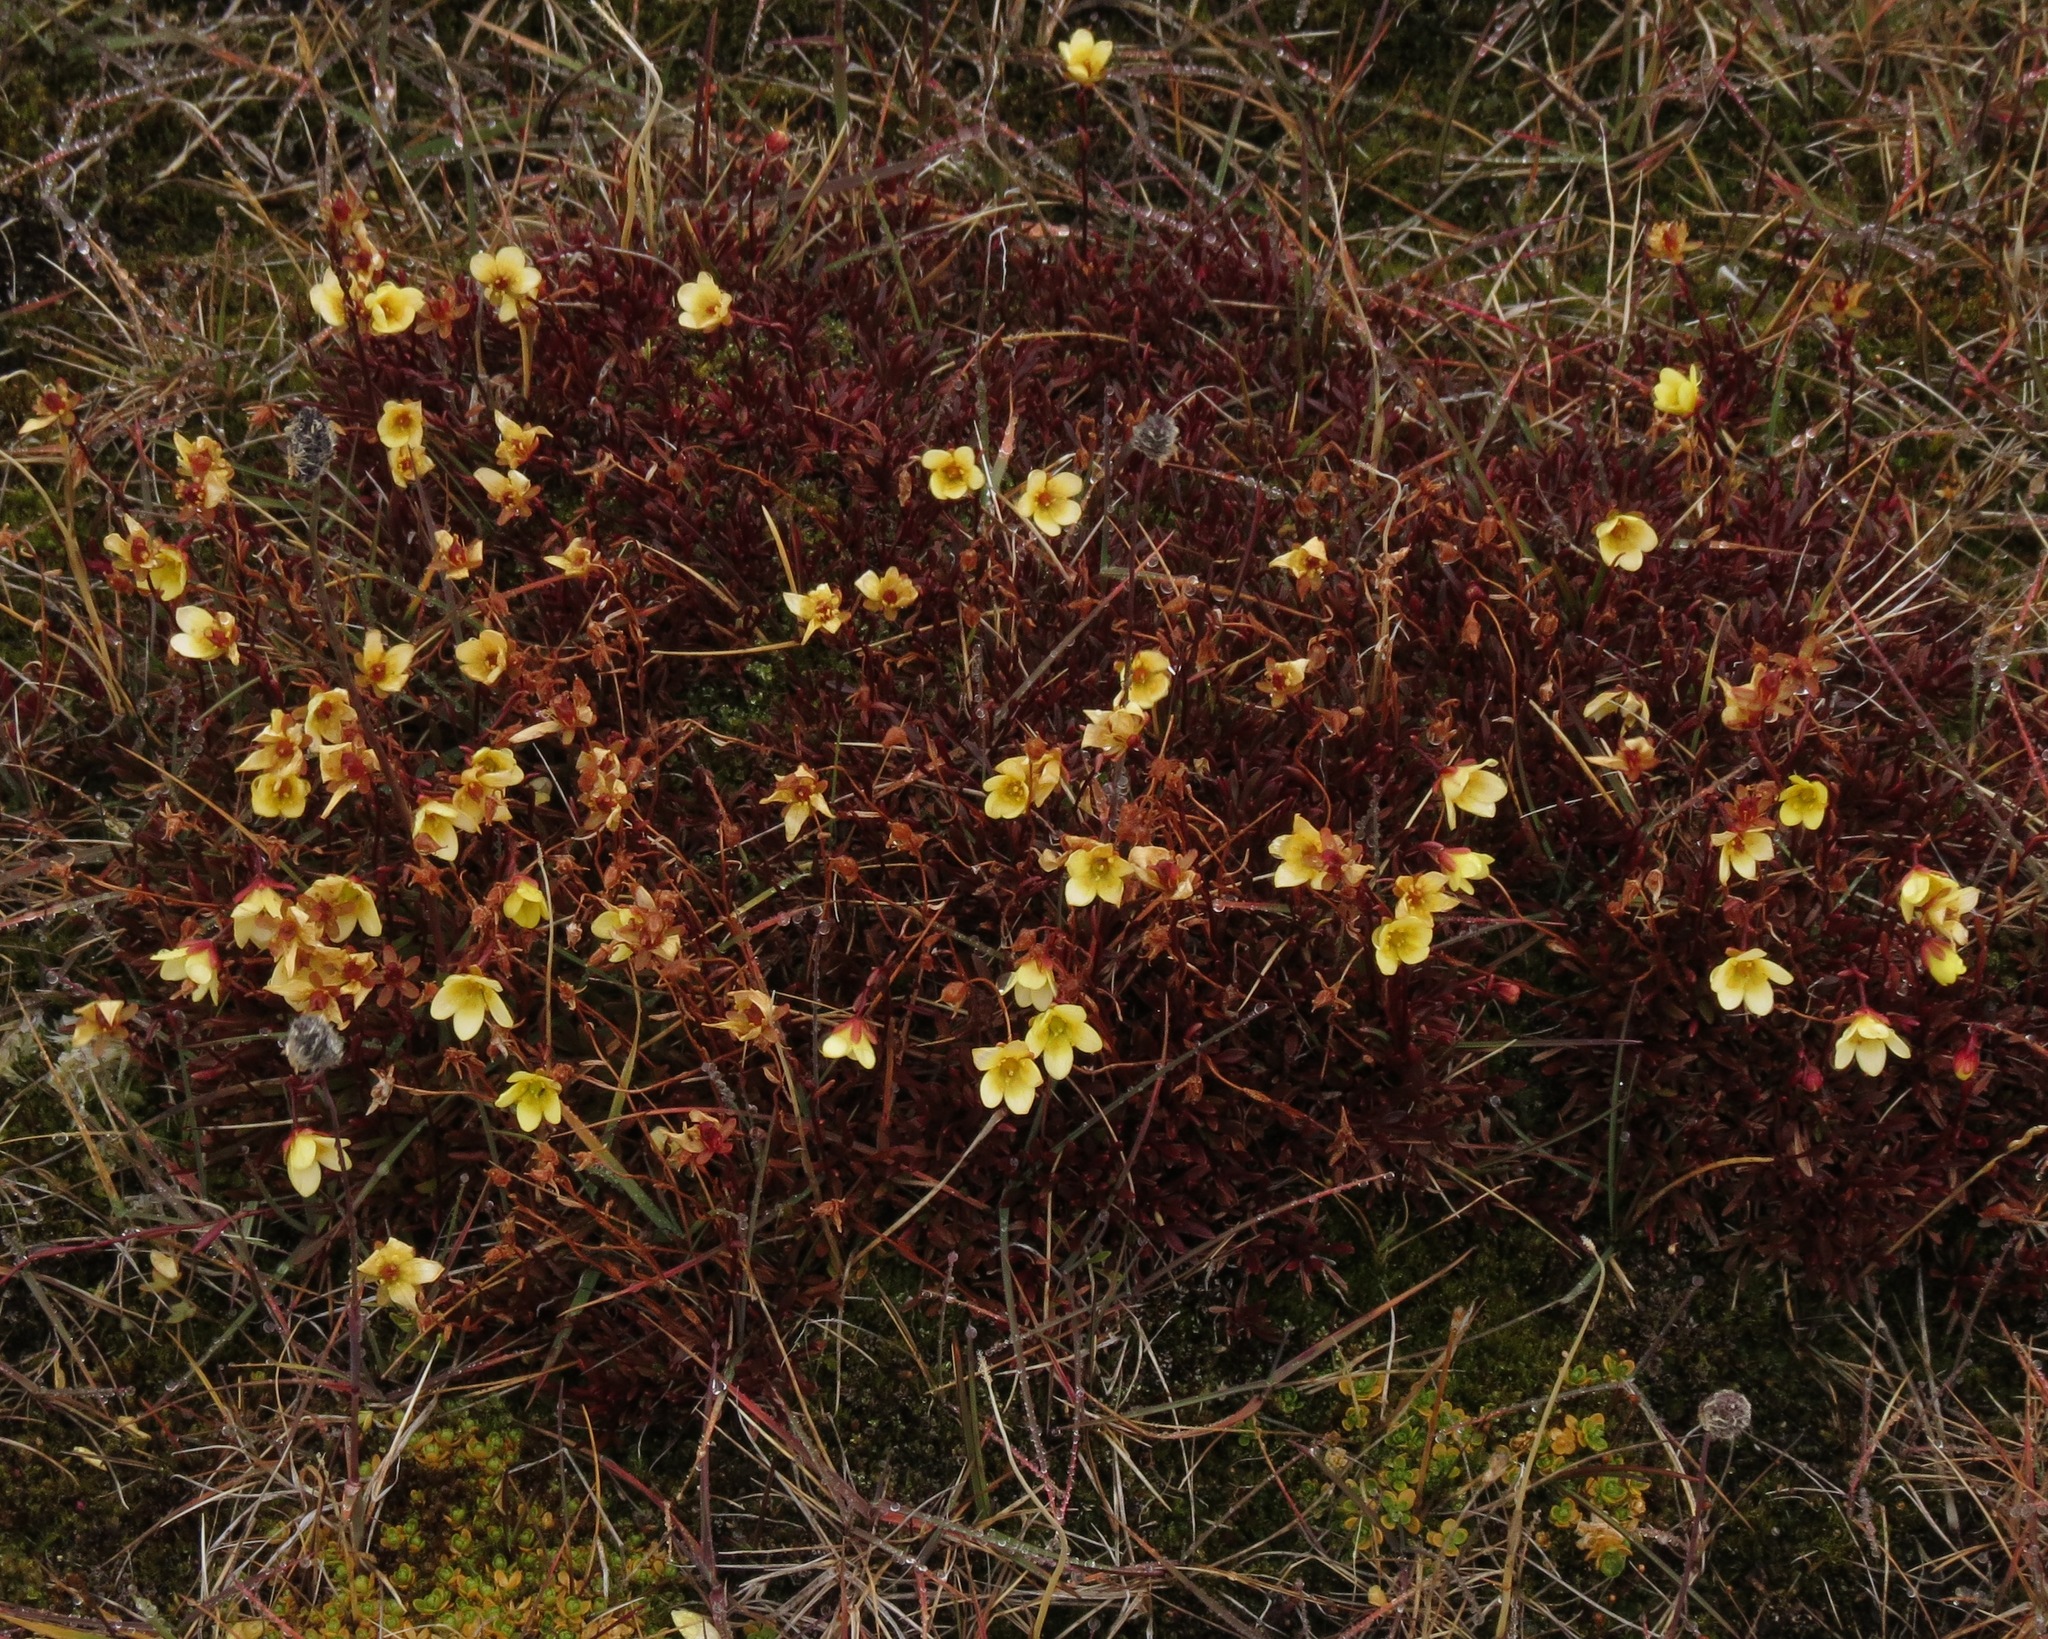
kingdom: Plantae
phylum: Tracheophyta
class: Magnoliopsida
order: Saxifragales
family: Saxifragaceae
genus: Saxifraga
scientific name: Saxifraga hirculus
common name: Yellow marsh saxifrage
